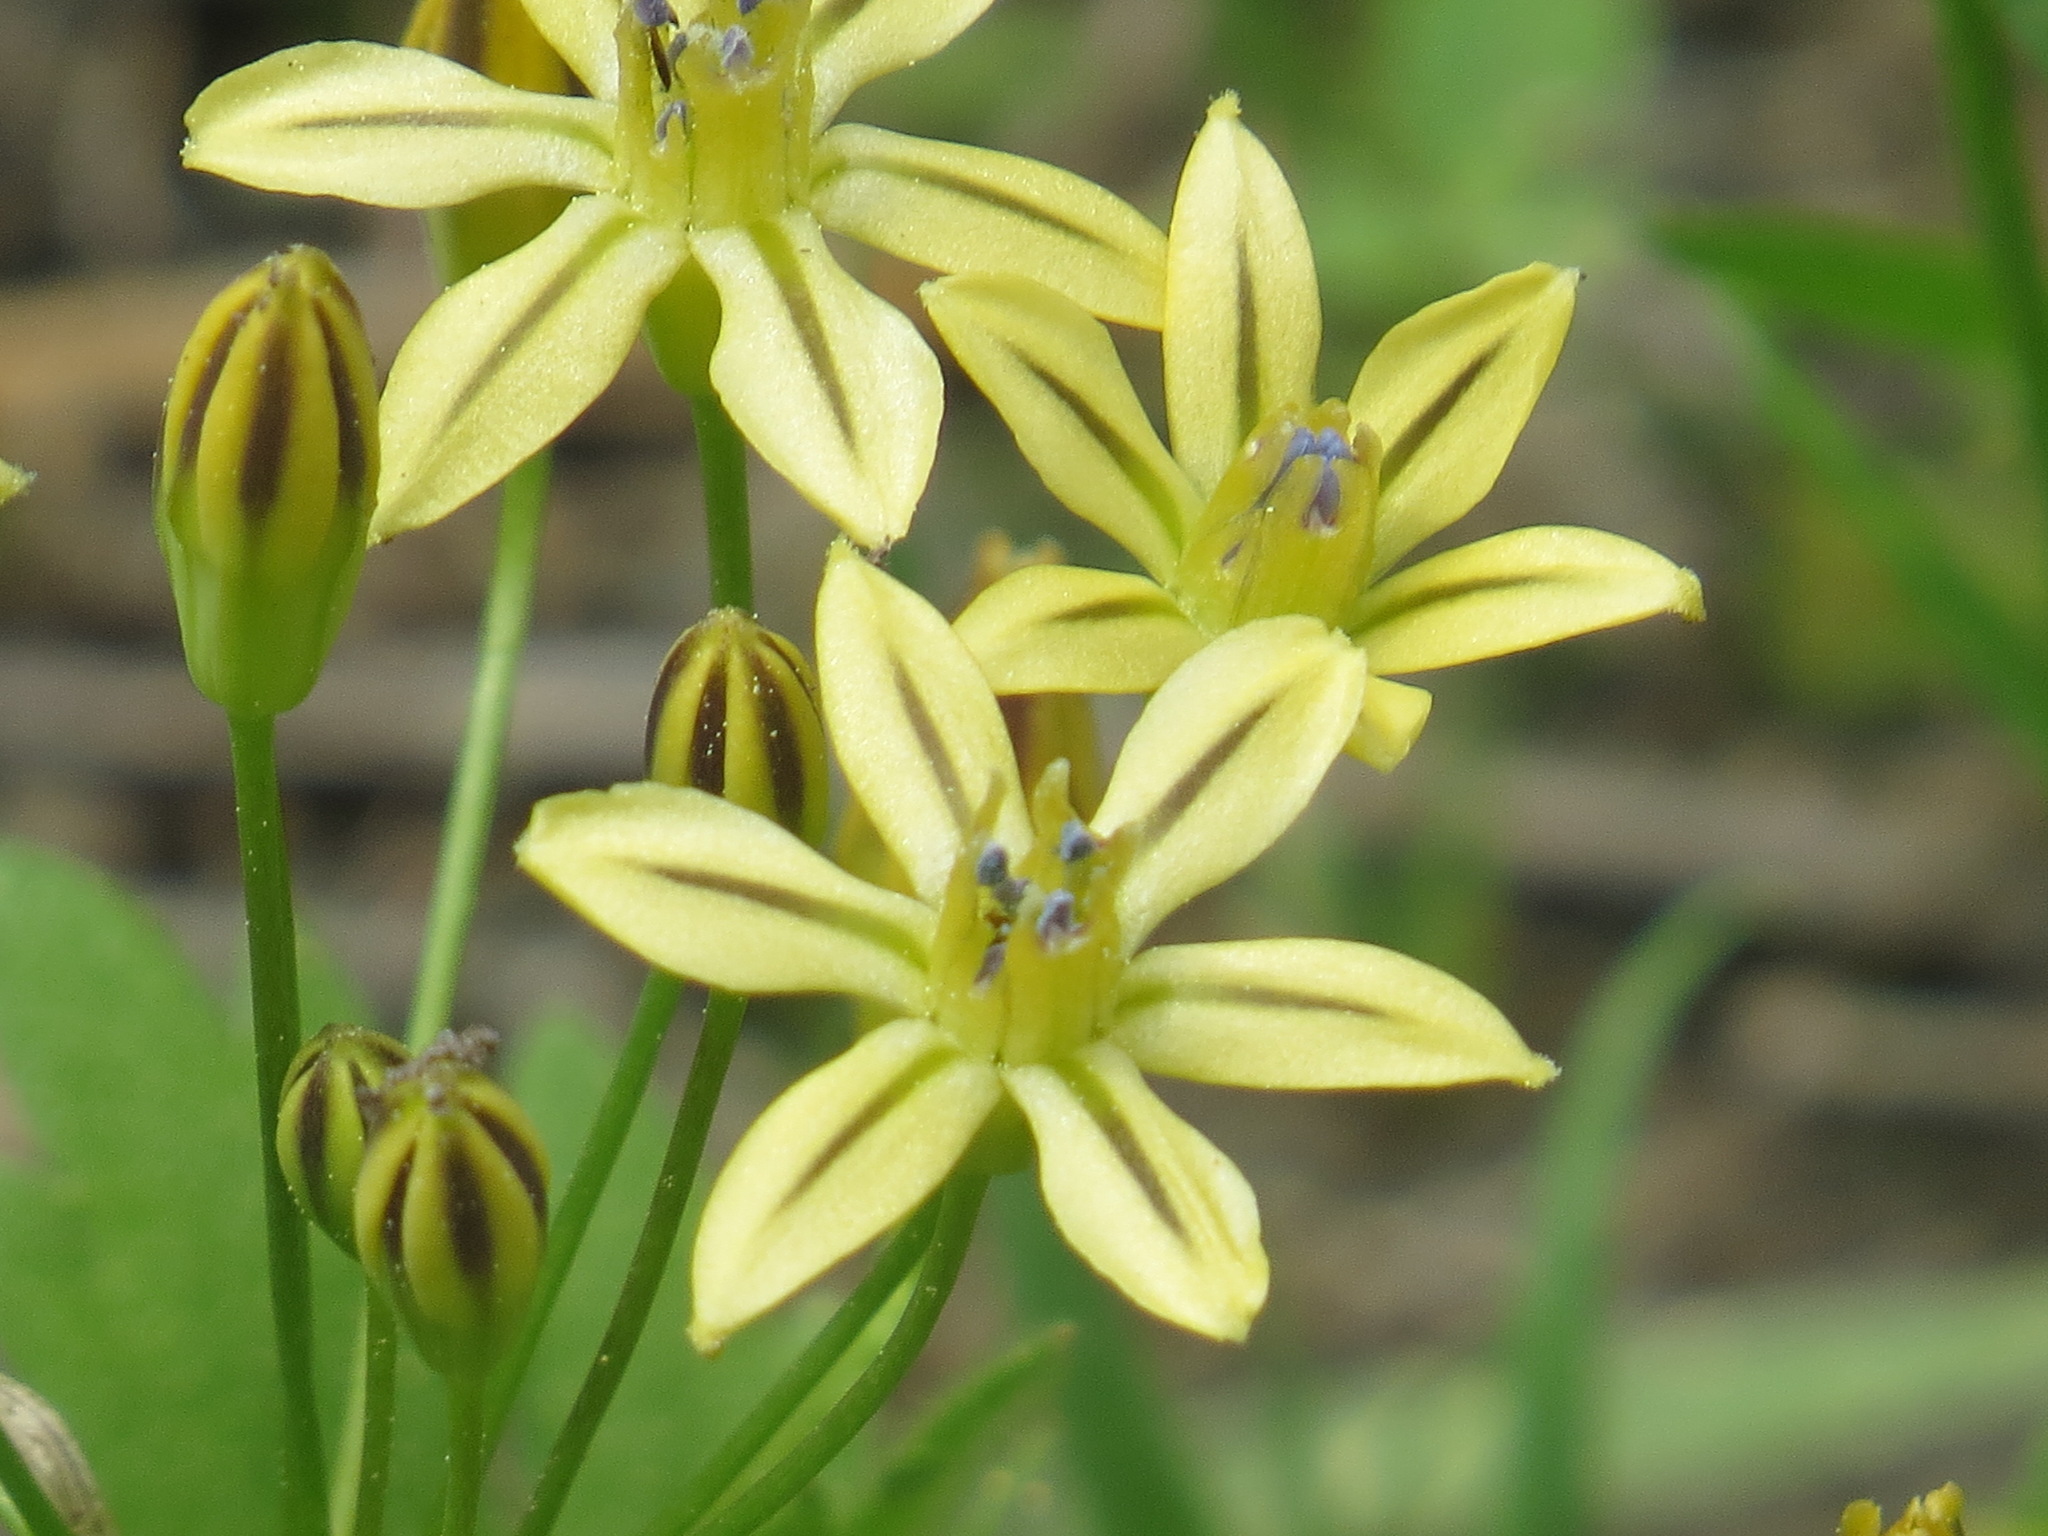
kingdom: Plantae
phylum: Tracheophyta
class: Liliopsida
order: Asparagales
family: Asparagaceae
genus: Triteleia
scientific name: Triteleia ixioides
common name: Yellow-brodiaea
